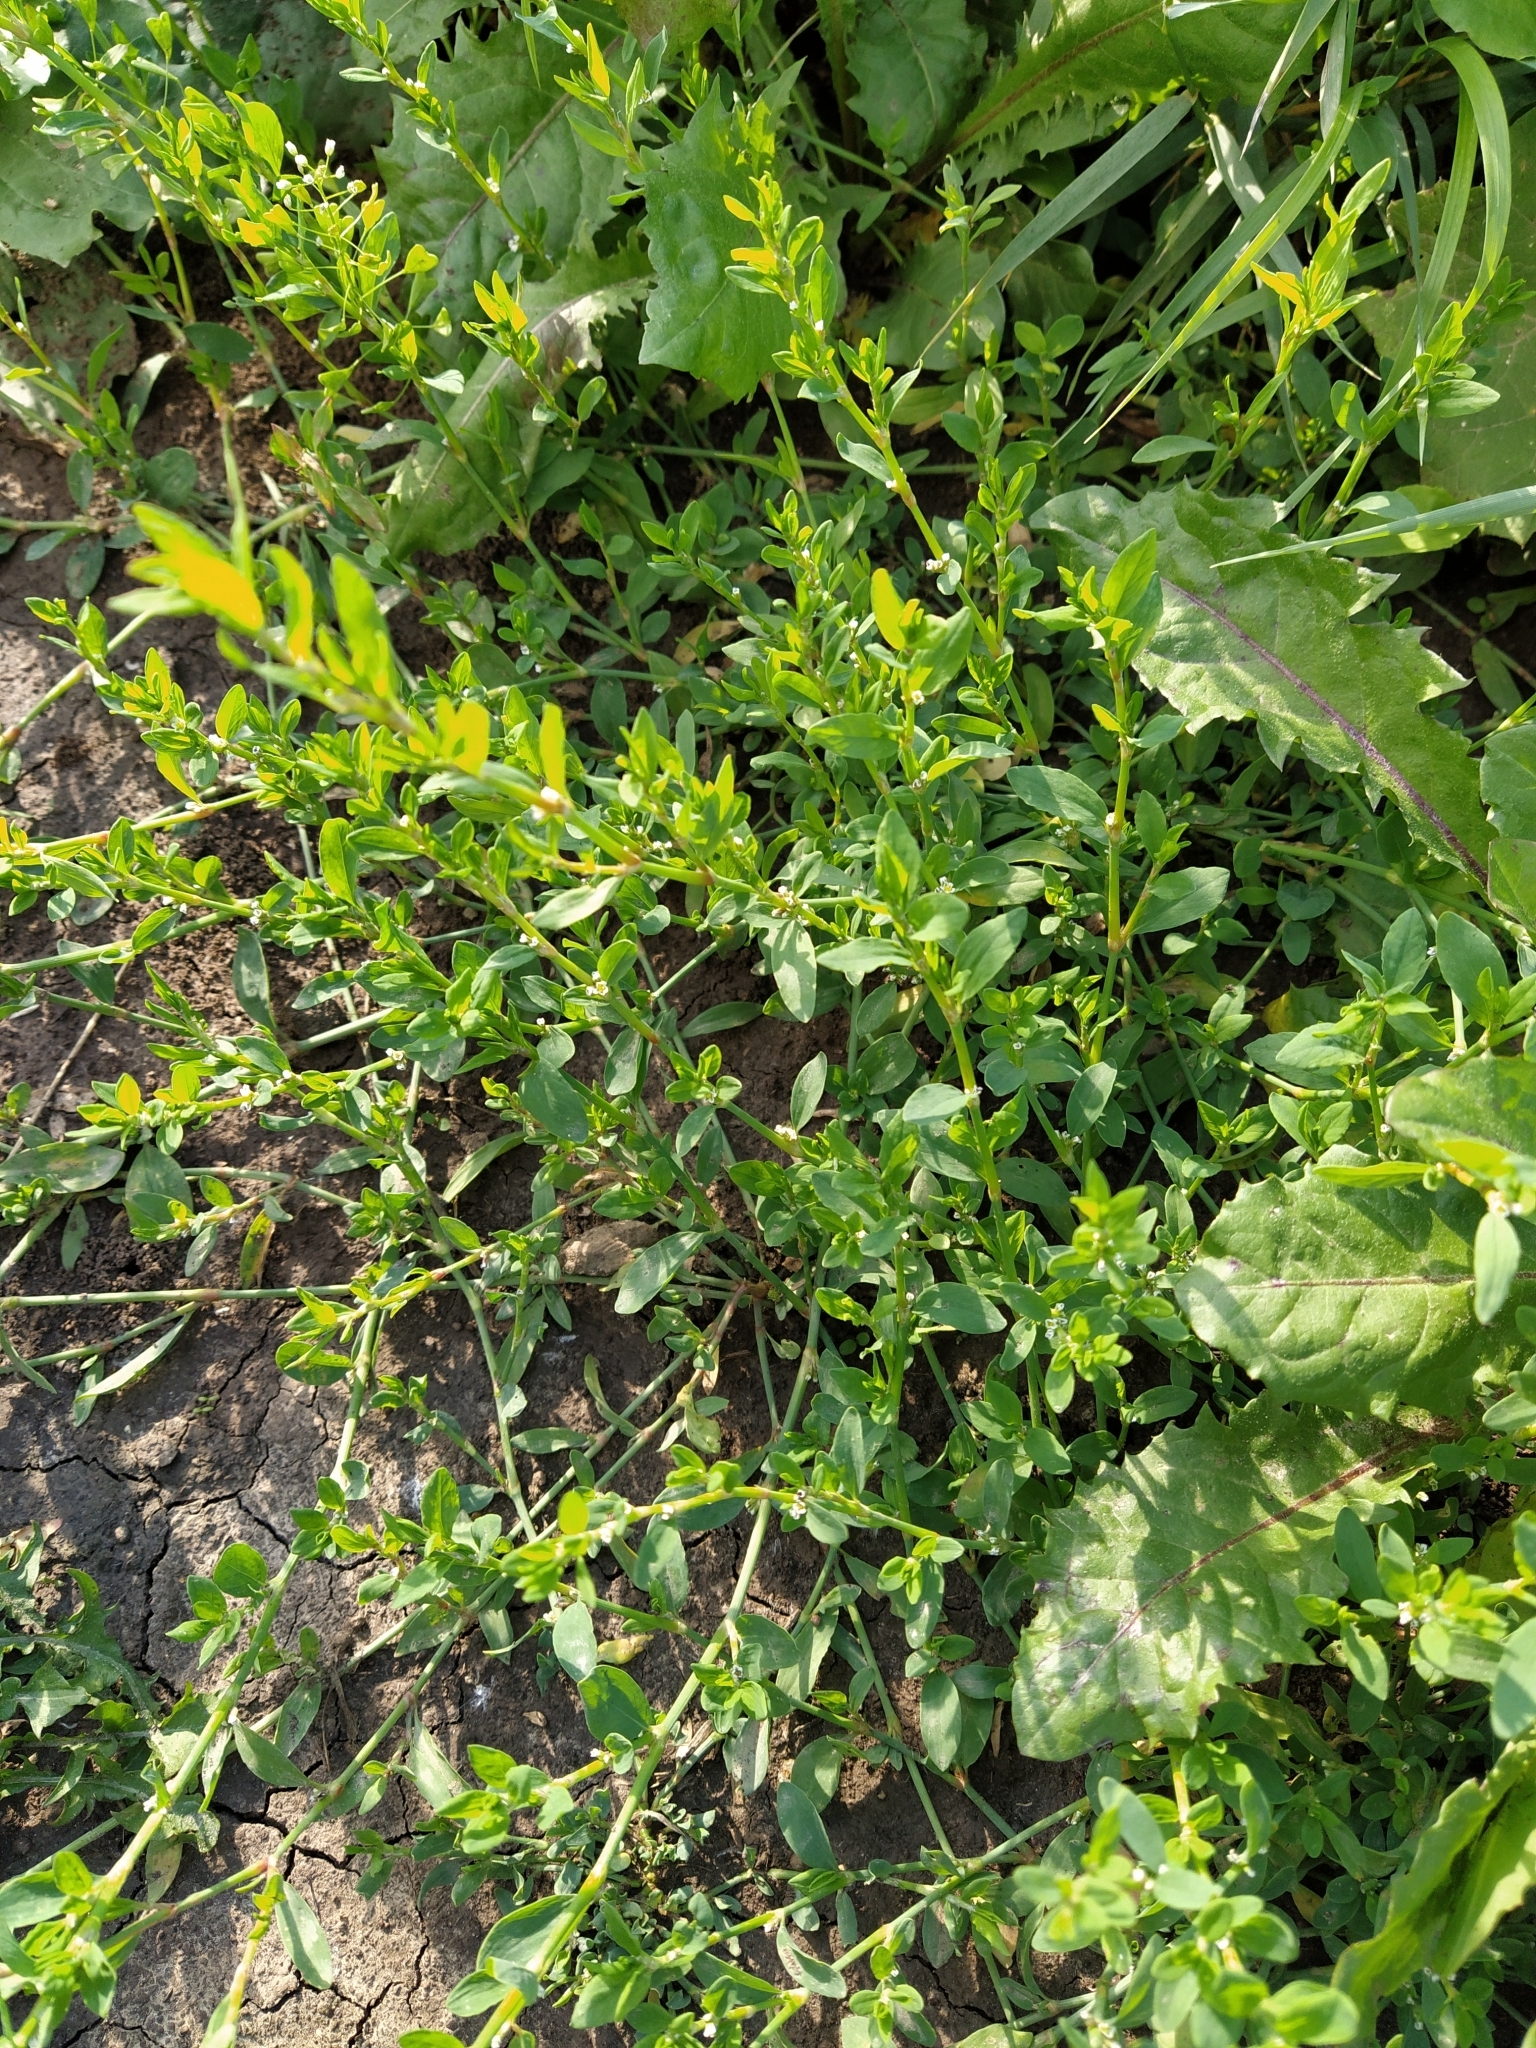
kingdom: Plantae
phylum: Tracheophyta
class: Magnoliopsida
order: Caryophyllales
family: Polygonaceae
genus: Polygonum
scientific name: Polygonum aviculare
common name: Prostrate knotweed
